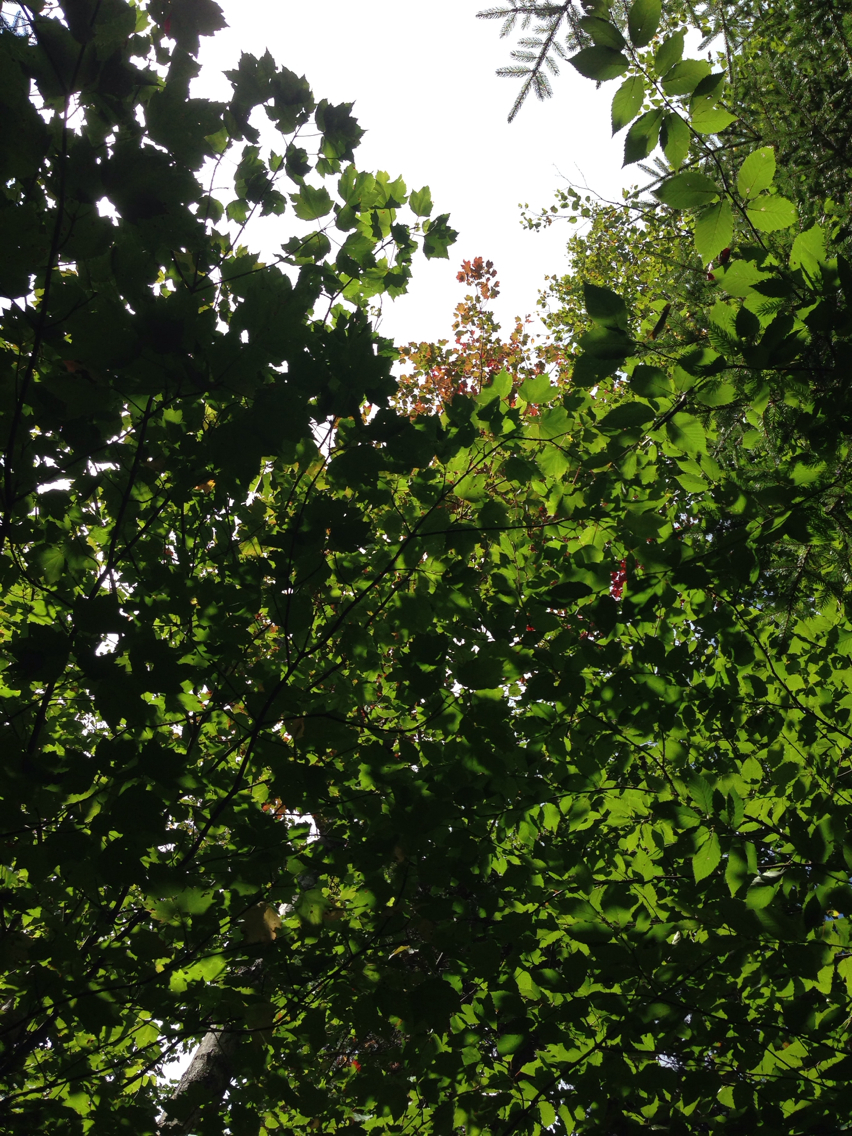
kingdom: Plantae
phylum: Tracheophyta
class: Magnoliopsida
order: Sapindales
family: Sapindaceae
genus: Acer
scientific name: Acer rubrum
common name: Red maple
